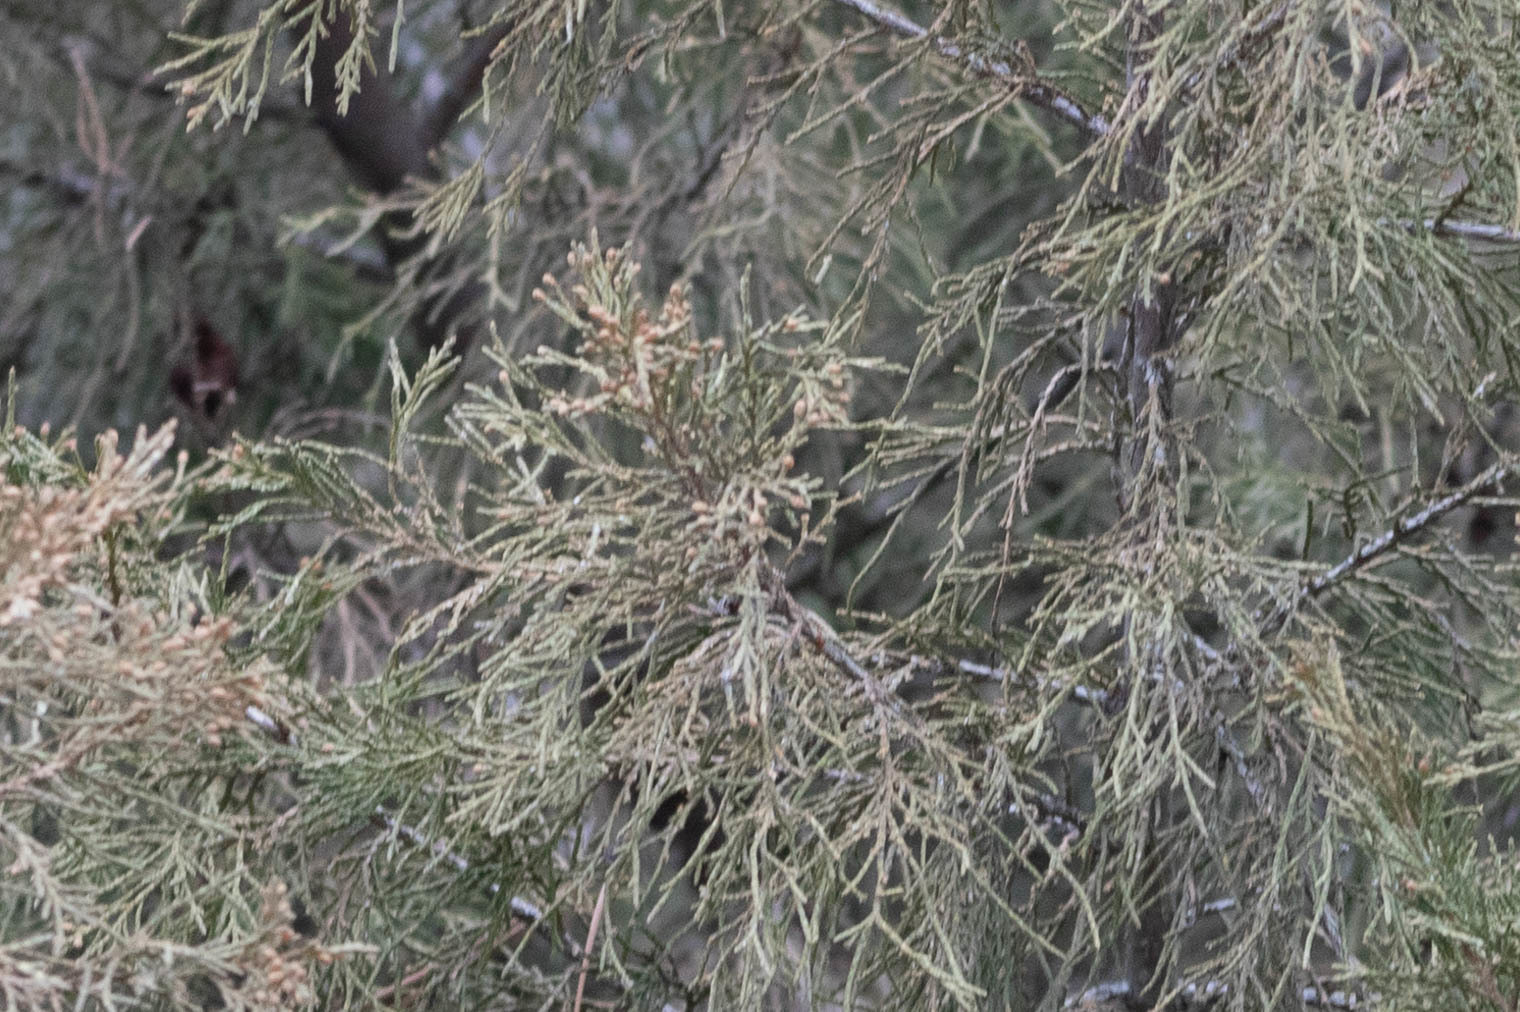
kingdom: Plantae
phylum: Tracheophyta
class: Pinopsida
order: Pinales
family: Cupressaceae
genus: Juniperus
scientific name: Juniperus scopulorum
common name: Rocky mountain juniper
